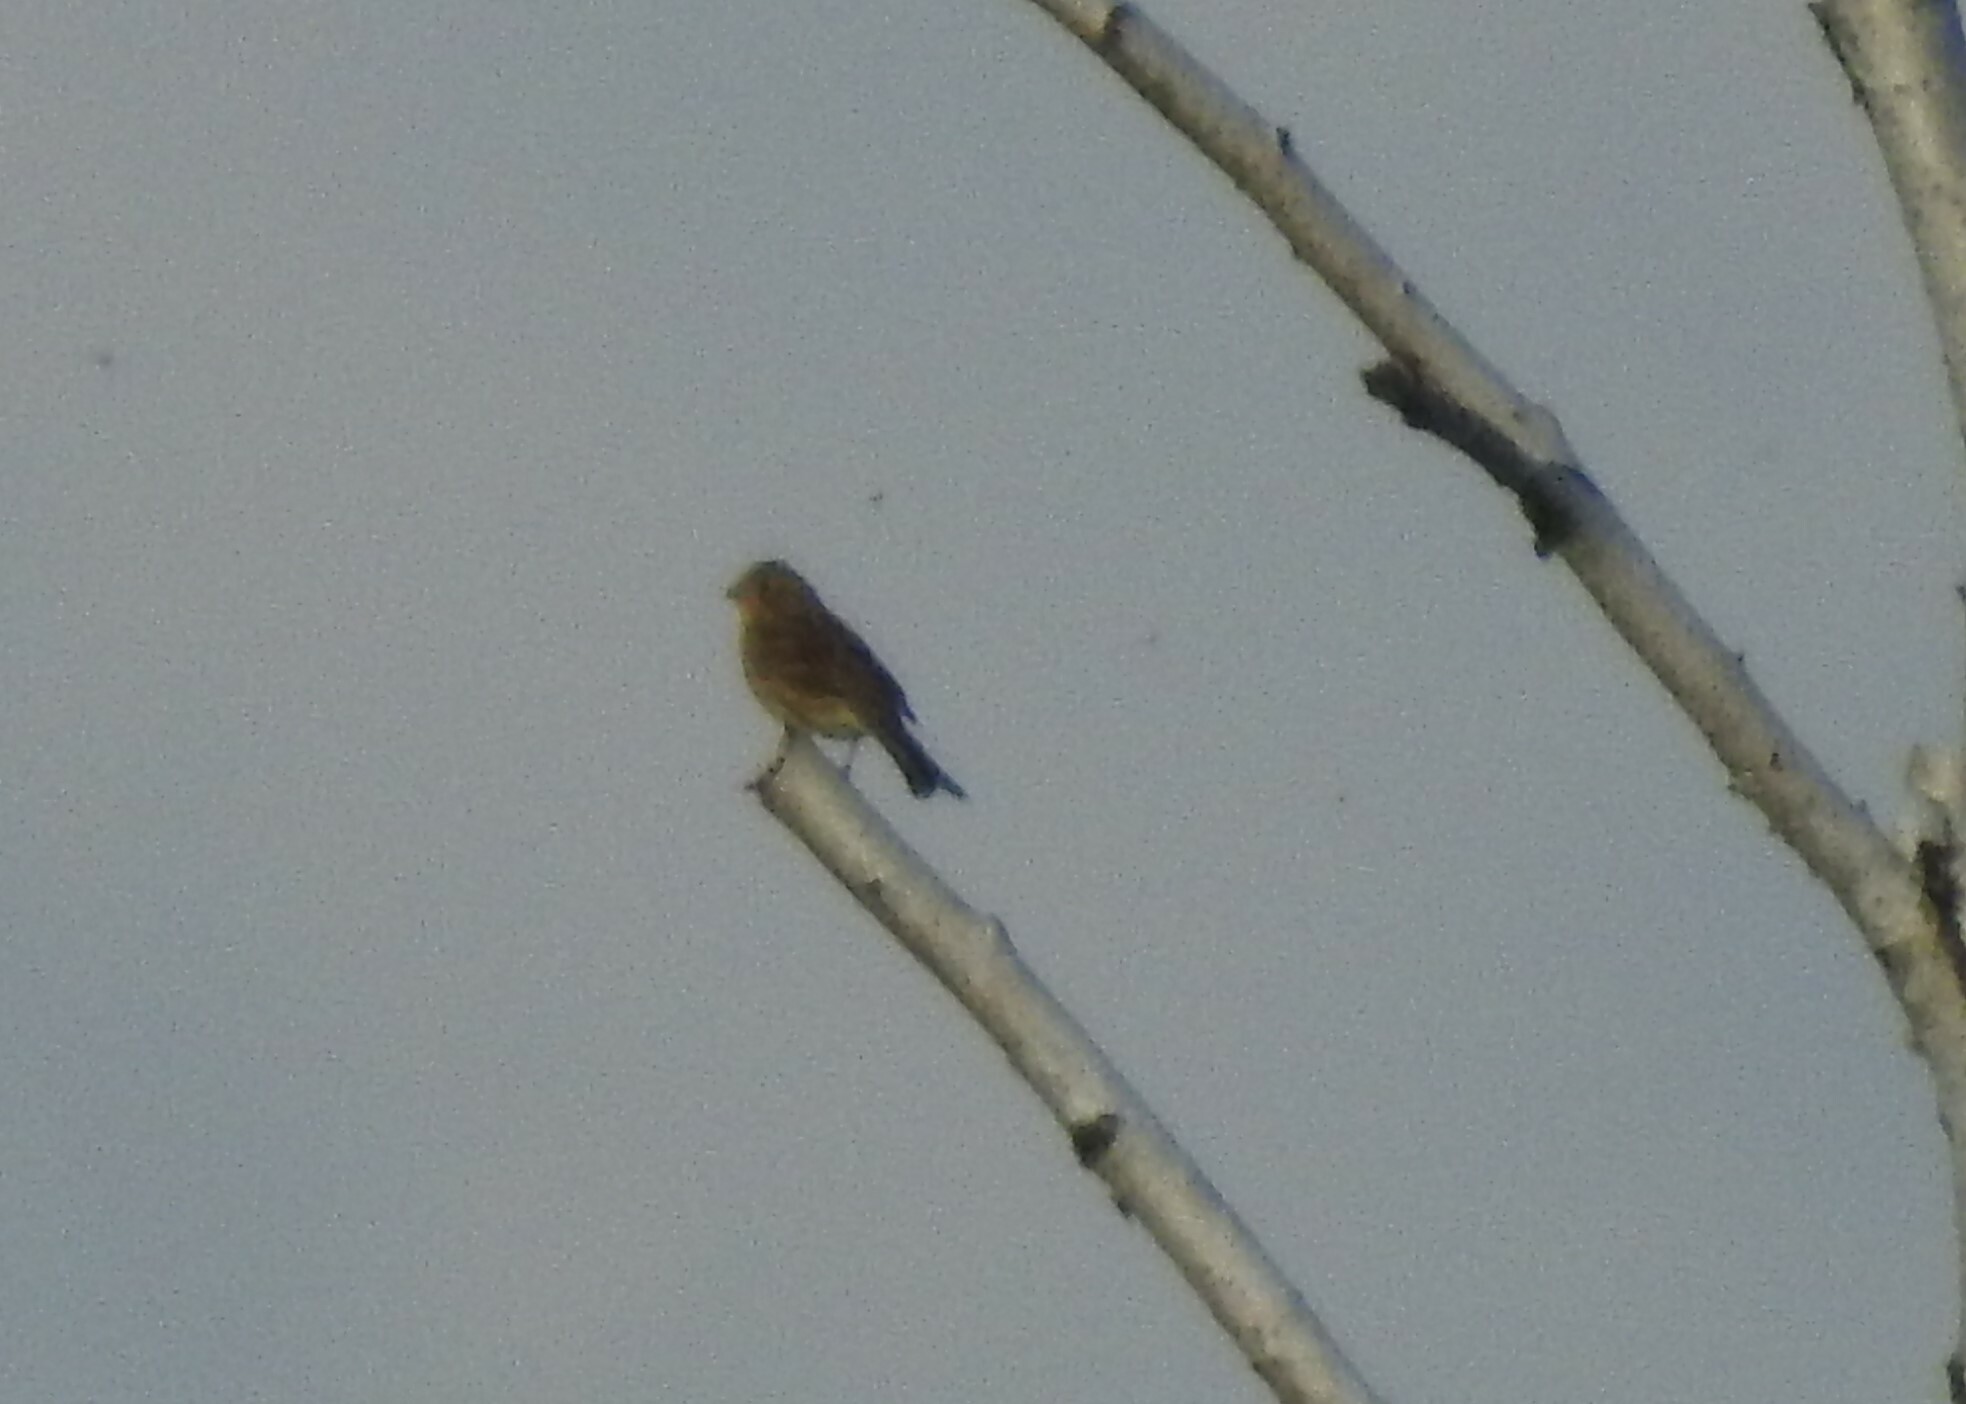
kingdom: Animalia
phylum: Chordata
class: Aves
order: Passeriformes
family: Emberizidae
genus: Emberiza
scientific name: Emberiza citrinella
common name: Yellowhammer
